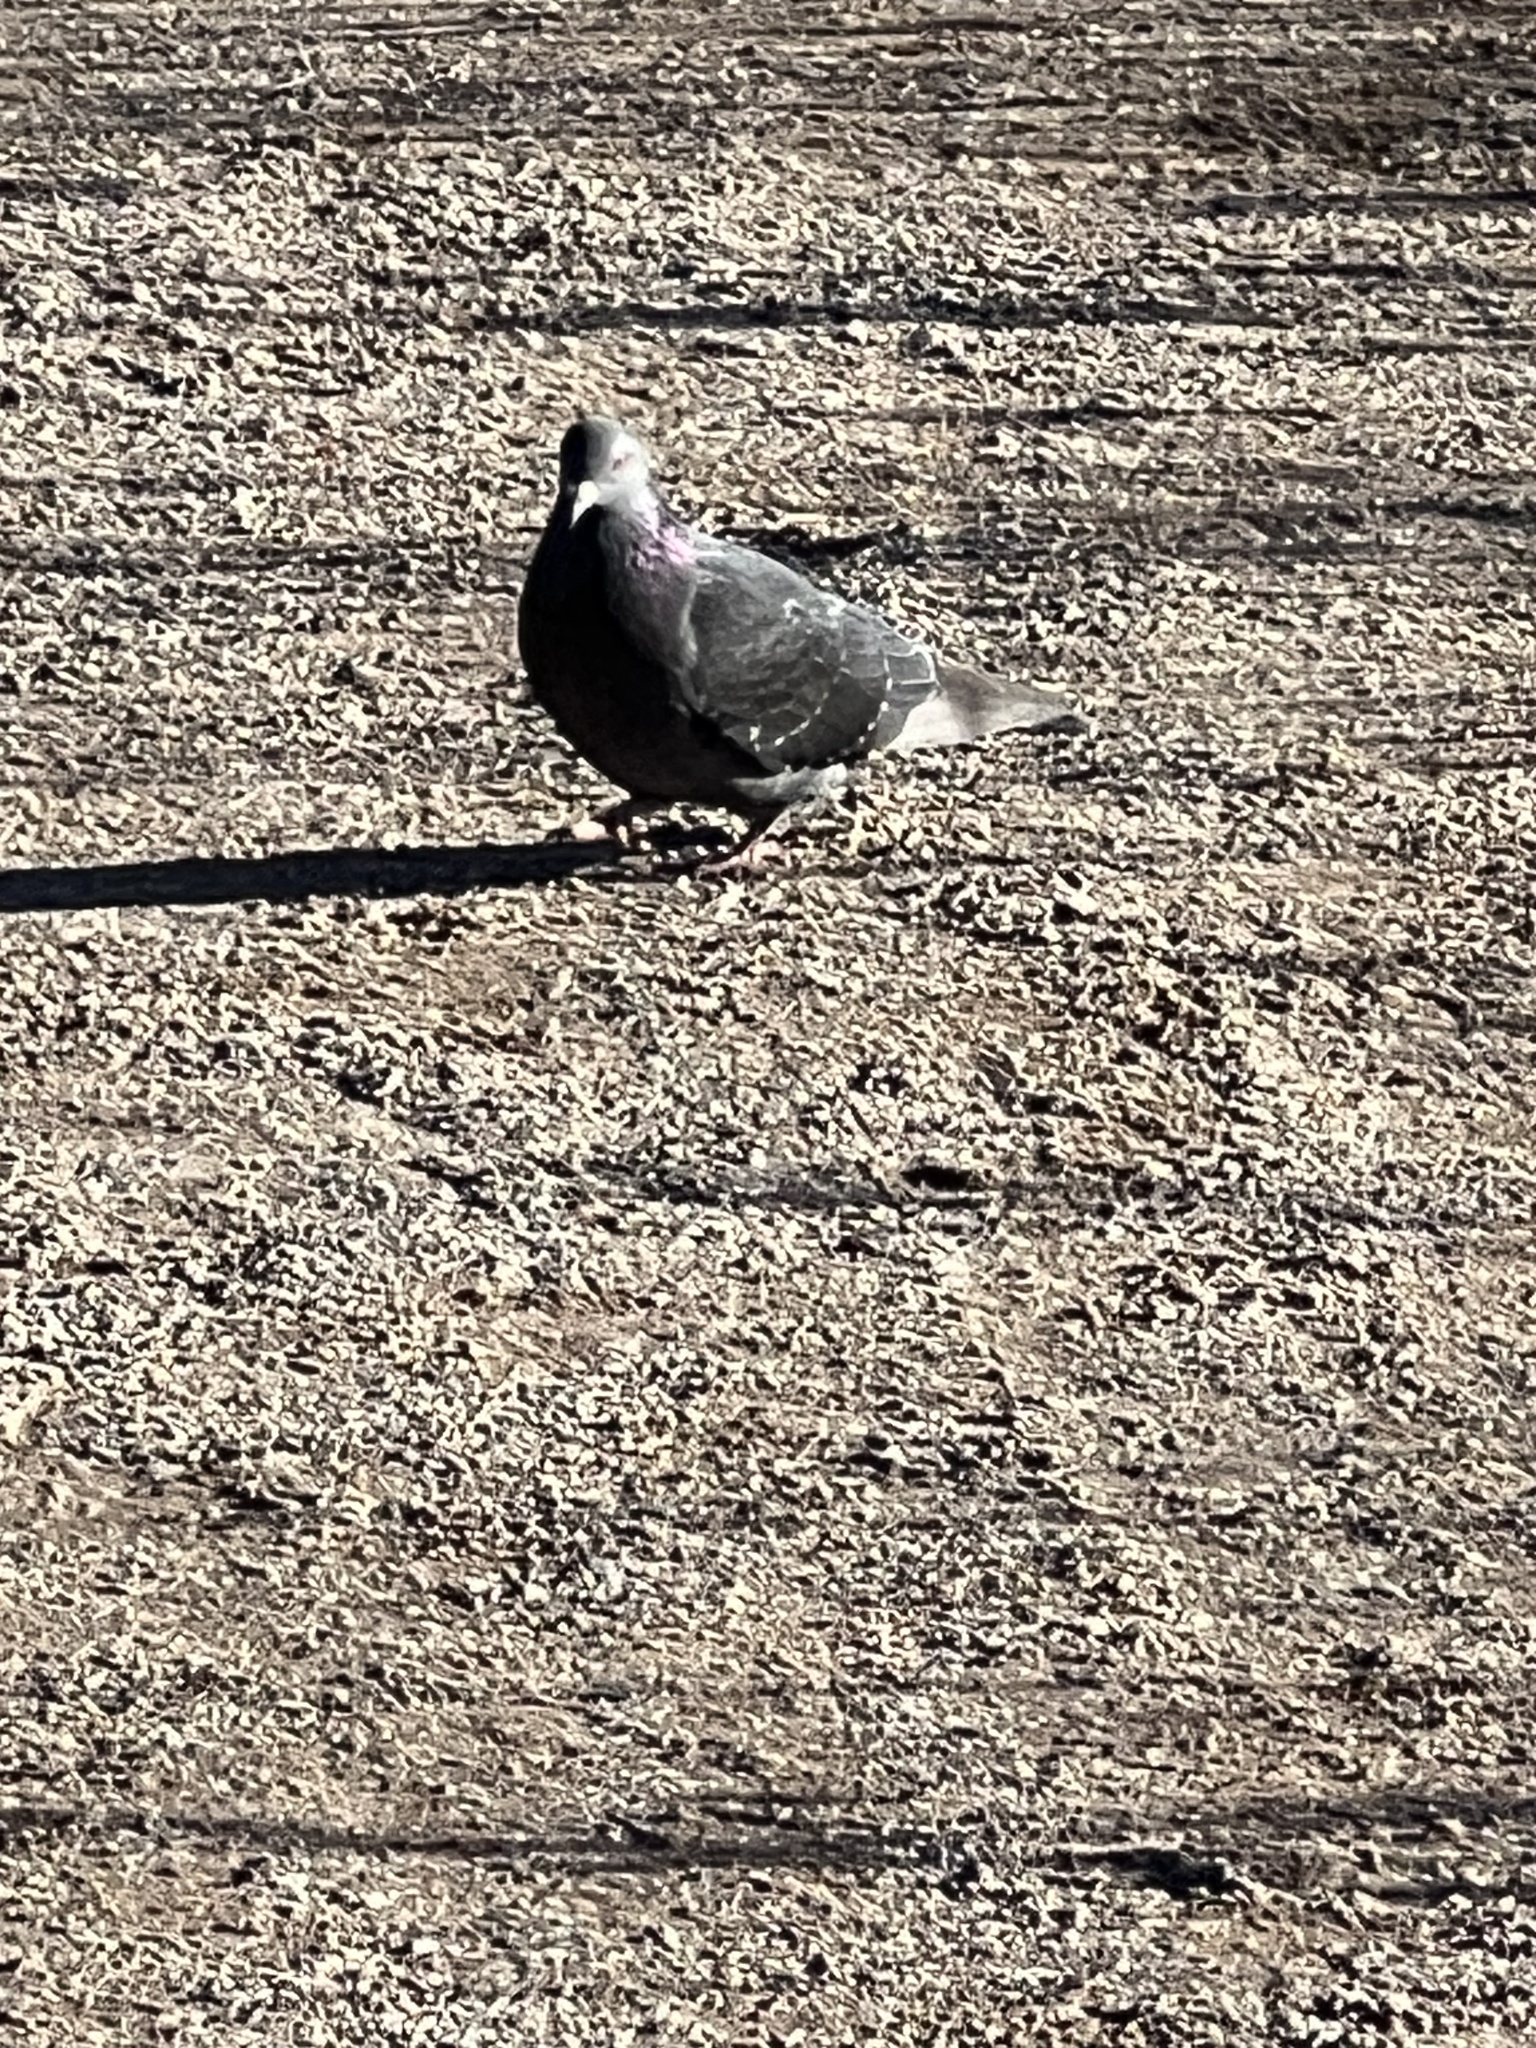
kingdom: Animalia
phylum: Chordata
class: Aves
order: Columbiformes
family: Columbidae
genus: Columba
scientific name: Columba livia
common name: Rock pigeon
